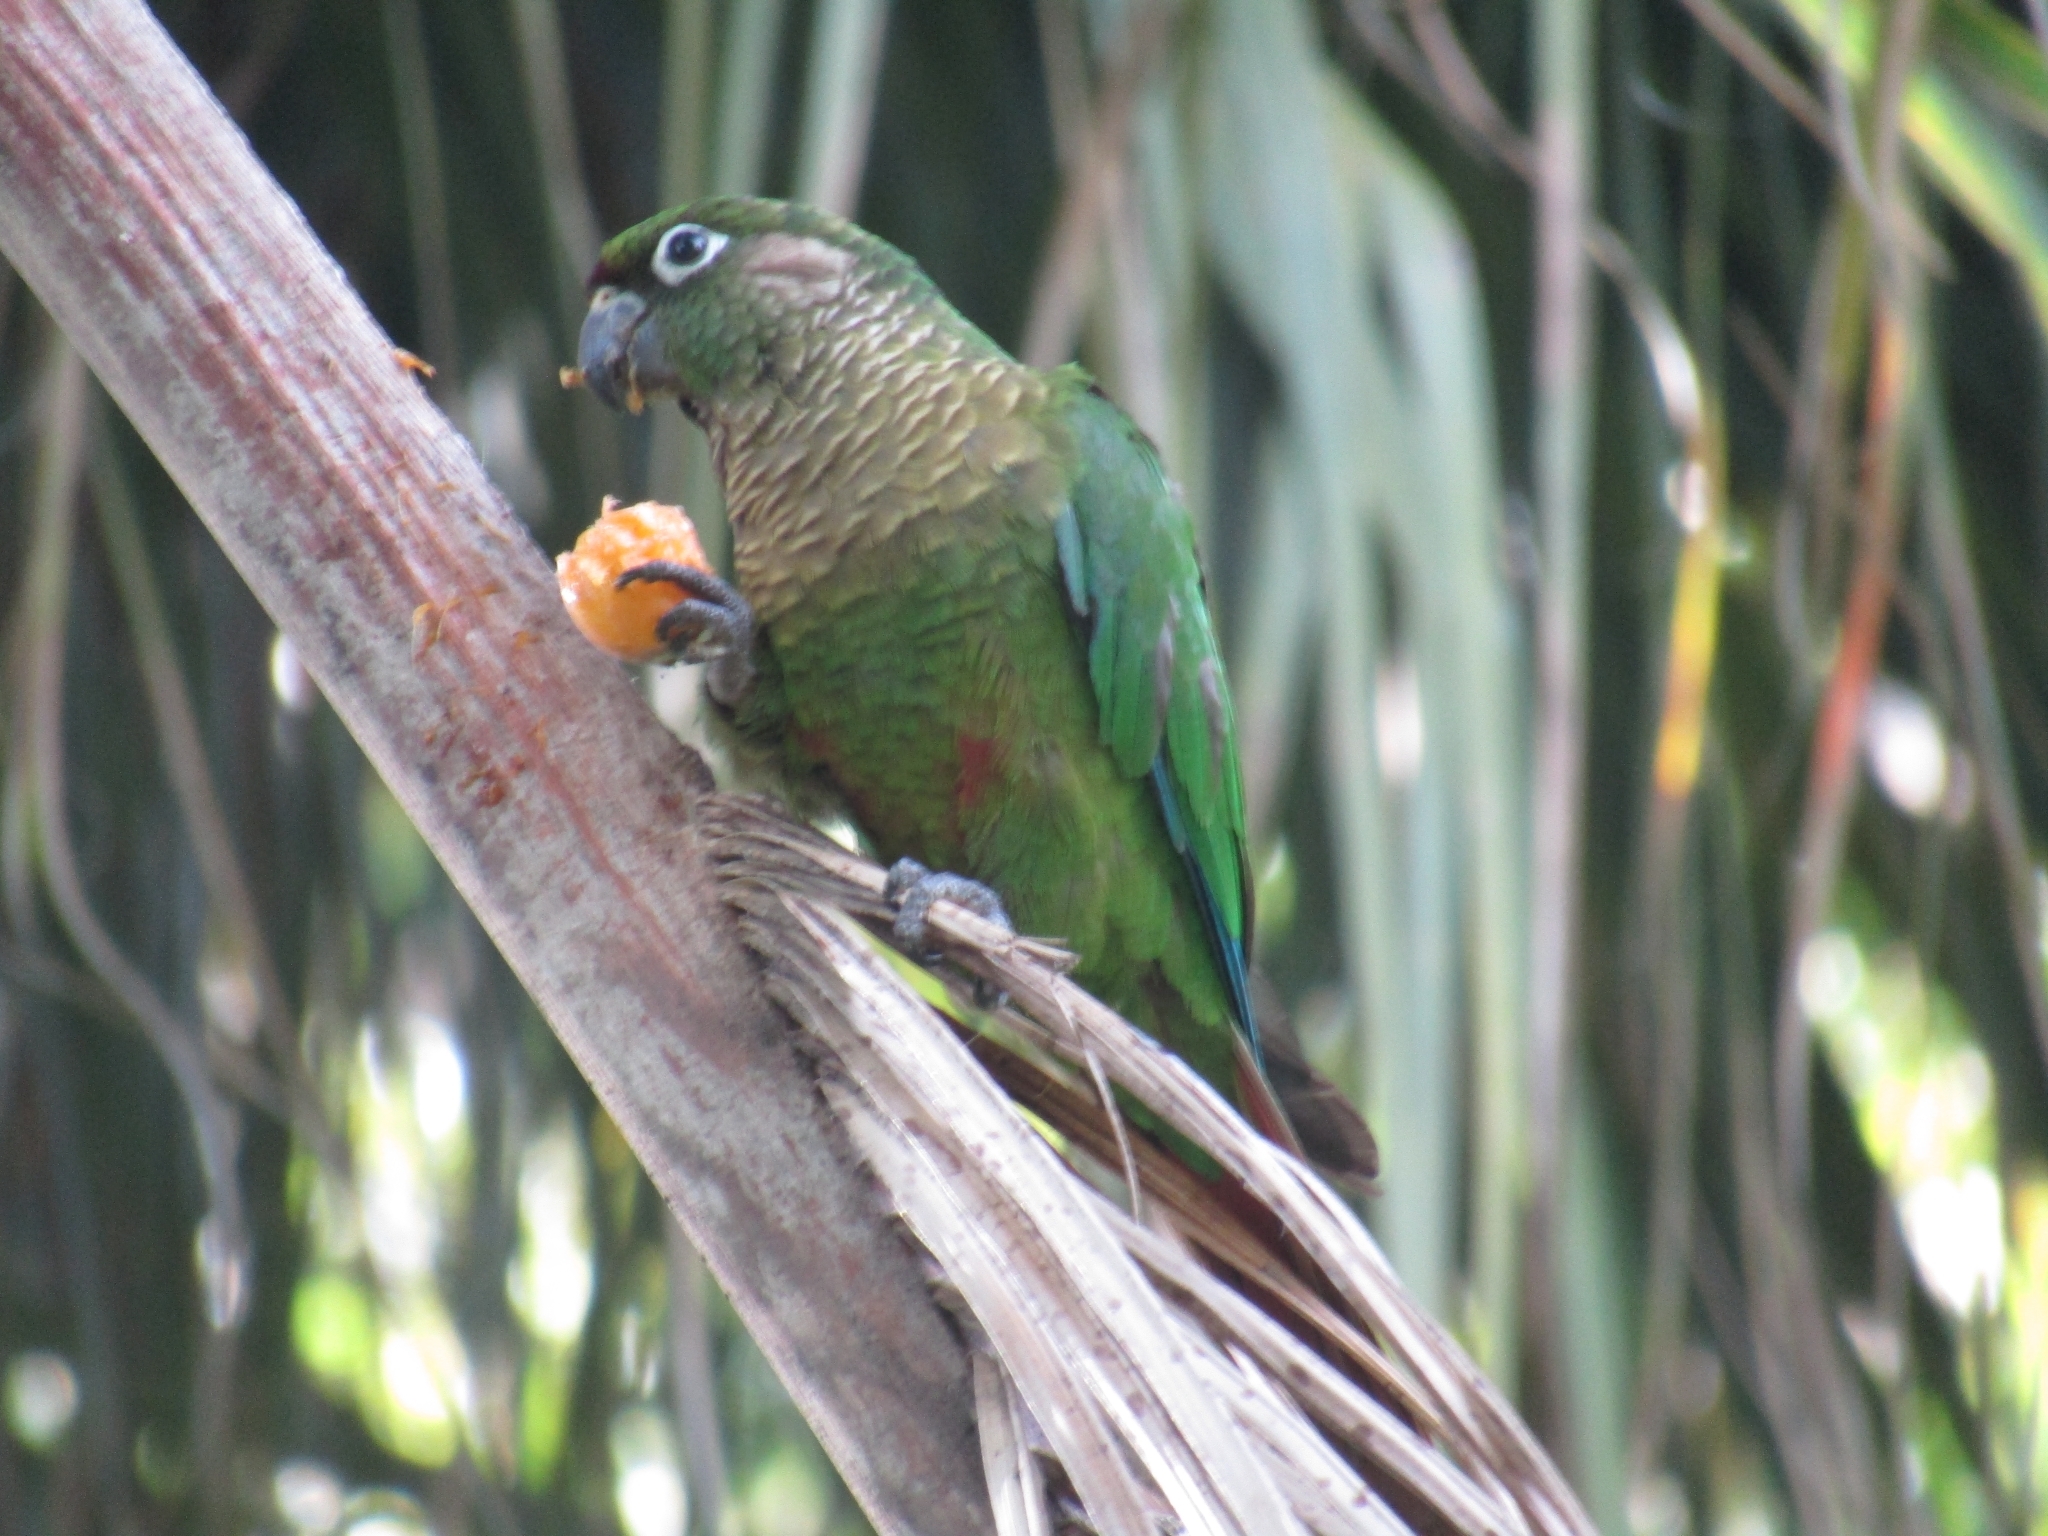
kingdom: Animalia
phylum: Chordata
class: Aves
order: Psittaciformes
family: Psittacidae
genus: Pyrrhura
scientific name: Pyrrhura frontalis
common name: Maroon-bellied parakeet
